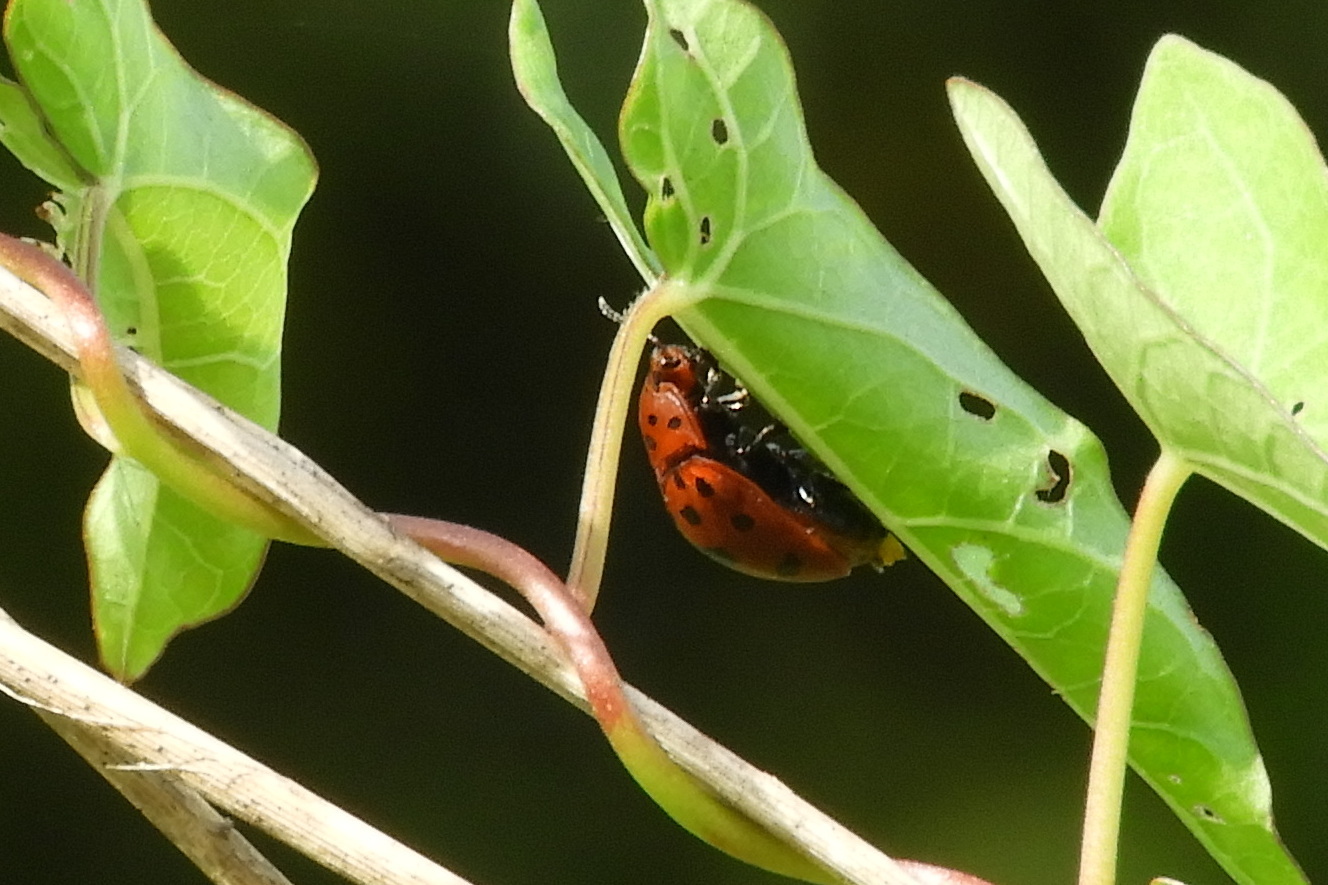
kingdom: Animalia
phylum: Arthropoda
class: Insecta
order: Coleoptera
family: Chrysomelidae
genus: Chelymorpha
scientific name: Chelymorpha cassidea
